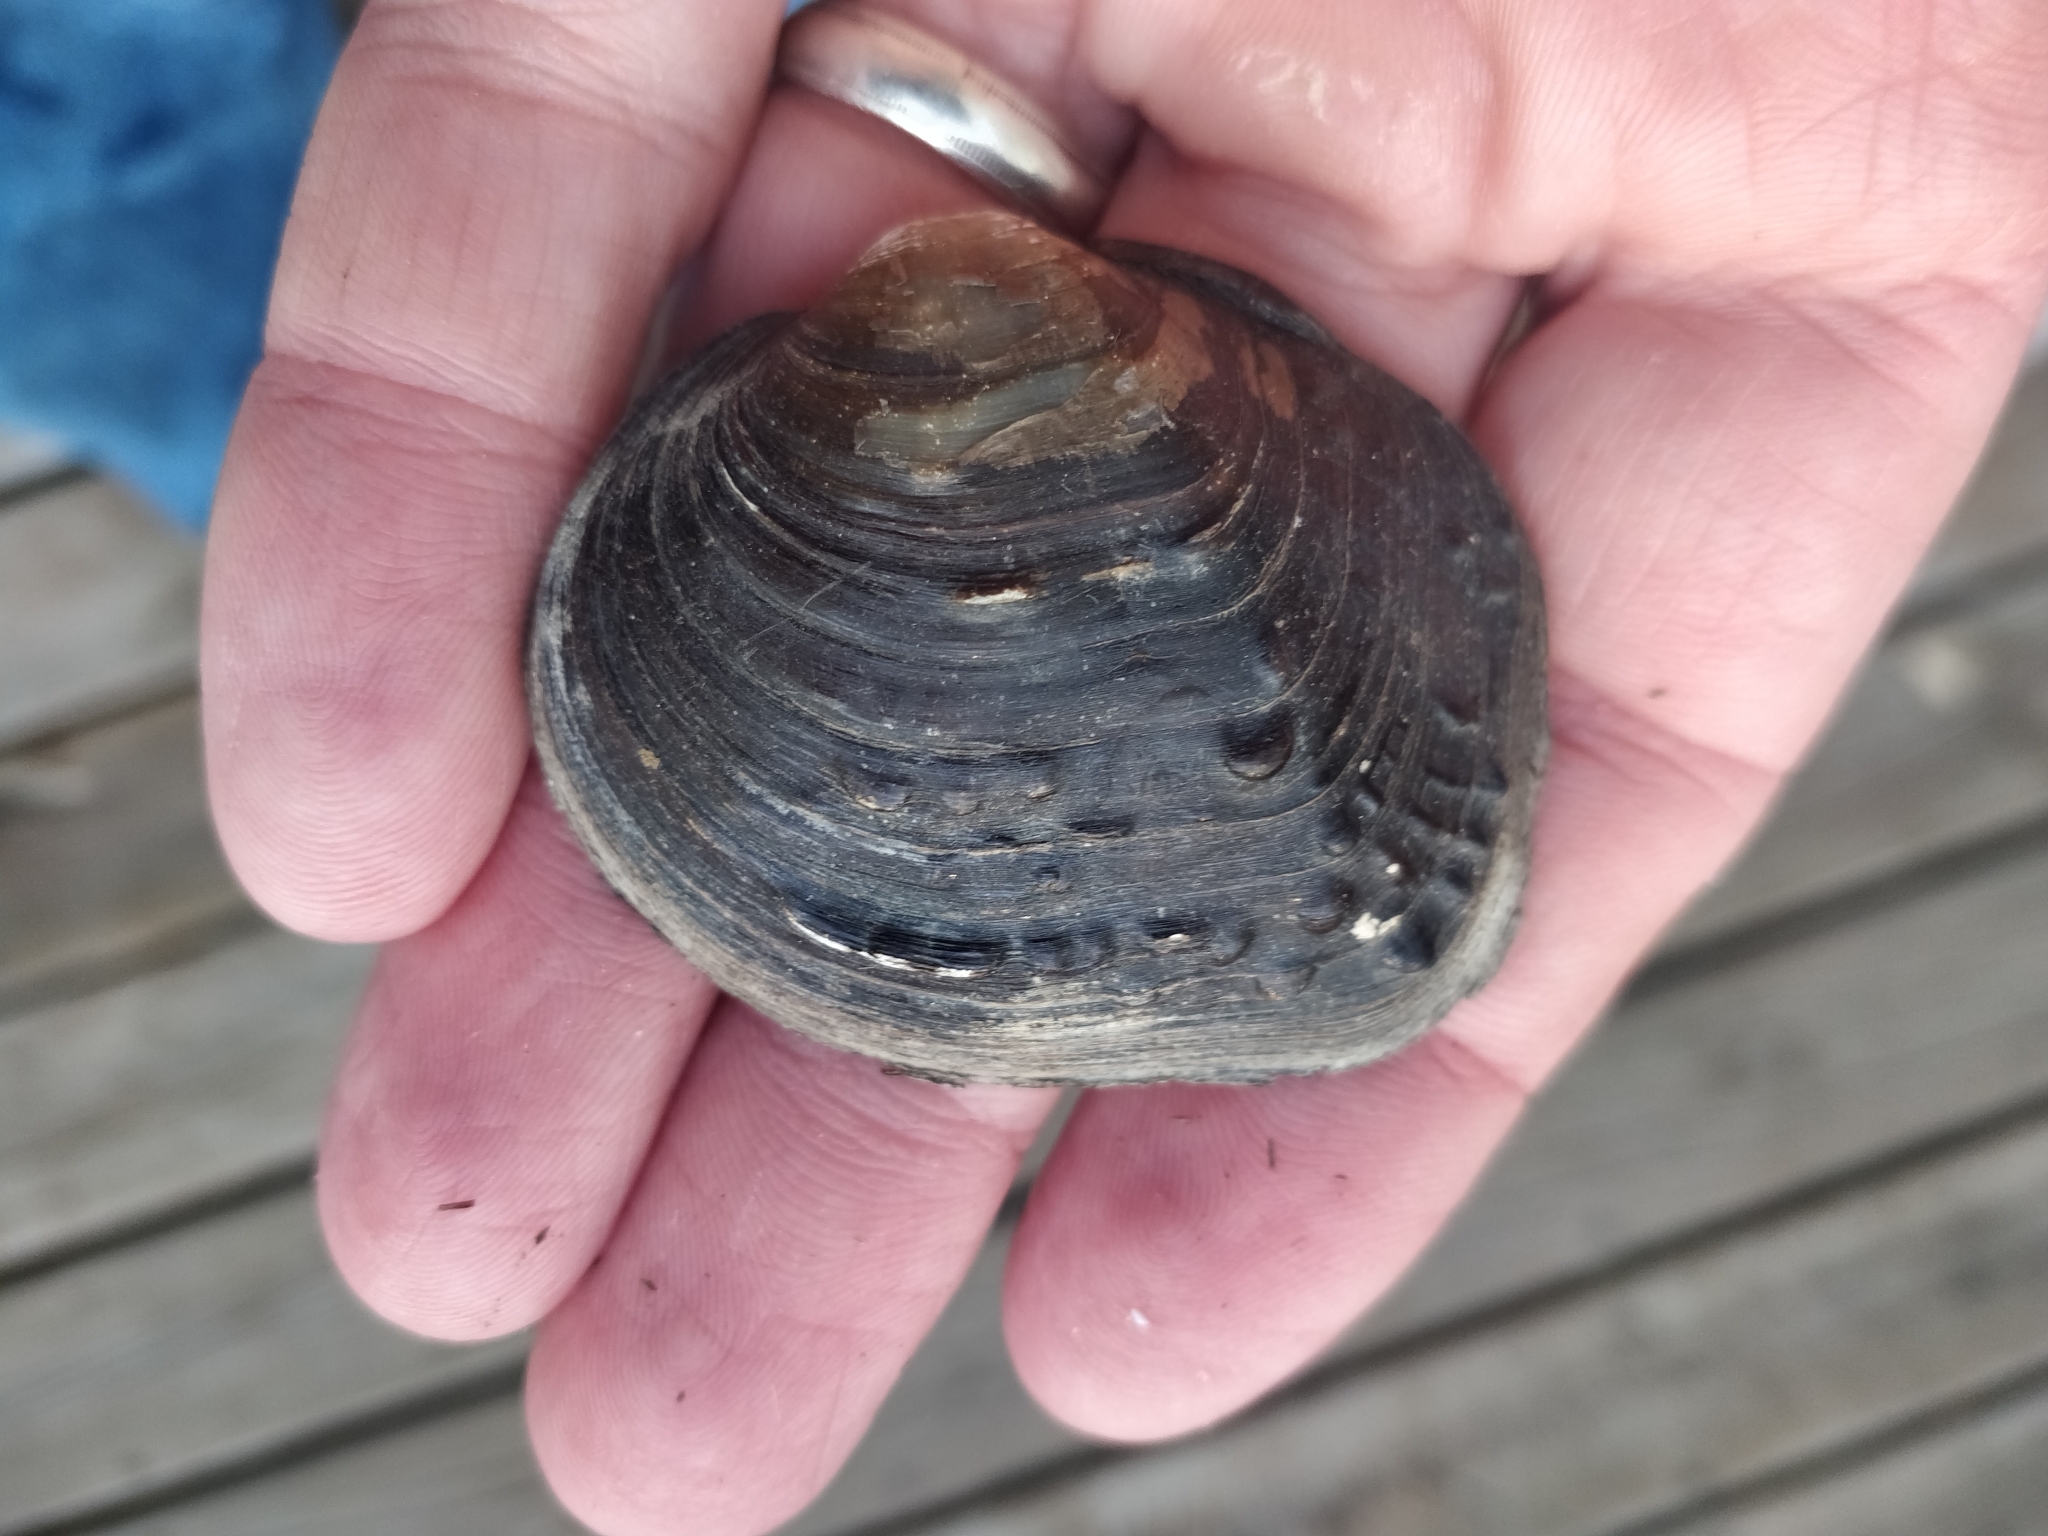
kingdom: Animalia
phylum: Mollusca
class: Bivalvia
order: Unionida
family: Unionidae
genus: Cyclonaias
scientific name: Cyclonaias pustulosa
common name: Pimpleback
